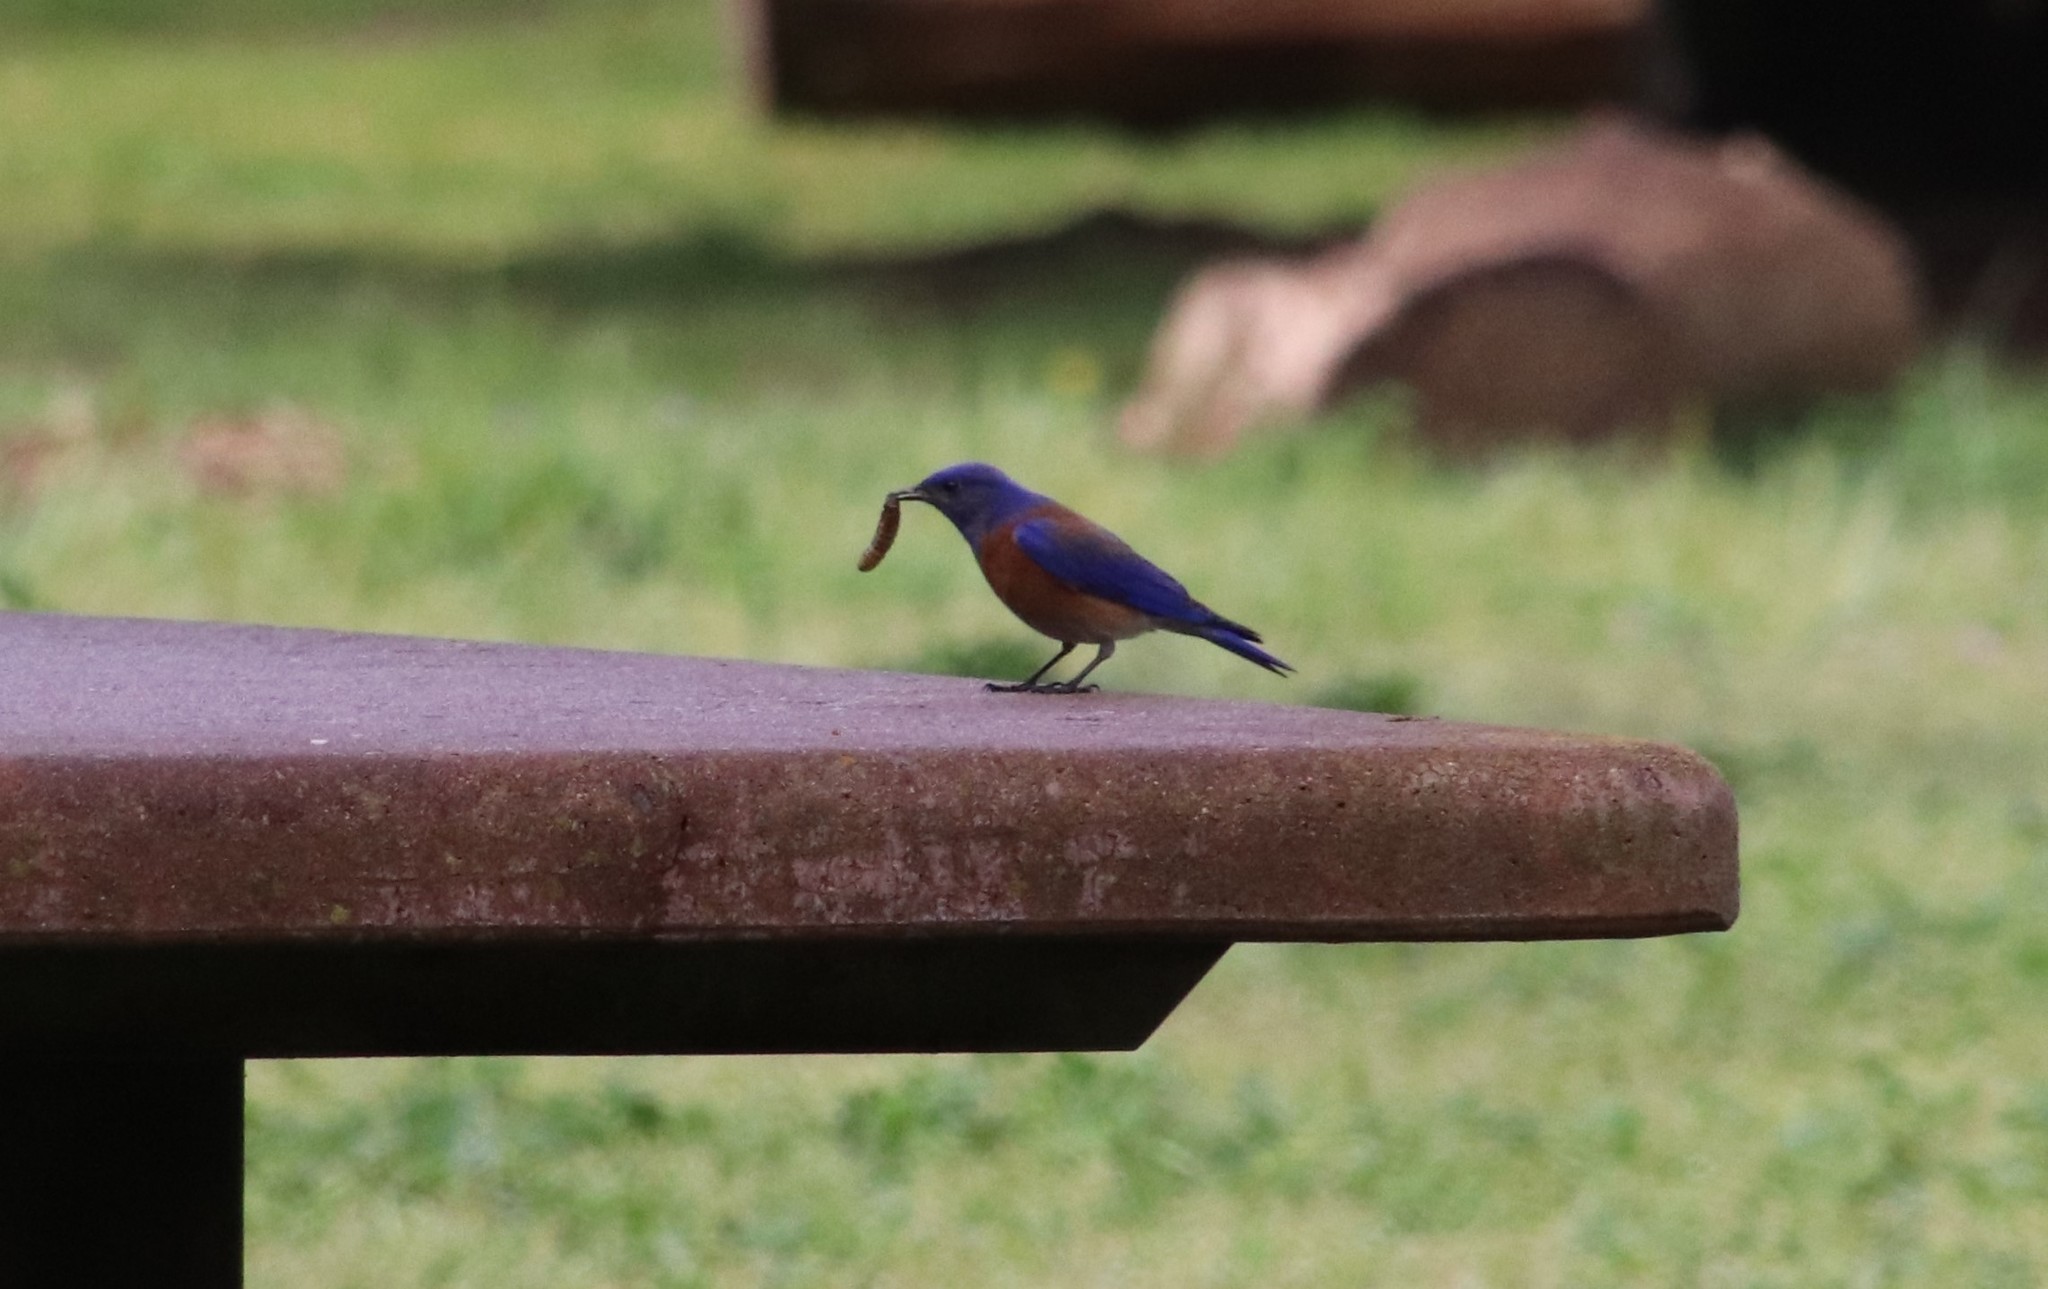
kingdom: Animalia
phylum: Chordata
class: Aves
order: Passeriformes
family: Turdidae
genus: Sialia
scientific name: Sialia mexicana
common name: Western bluebird
